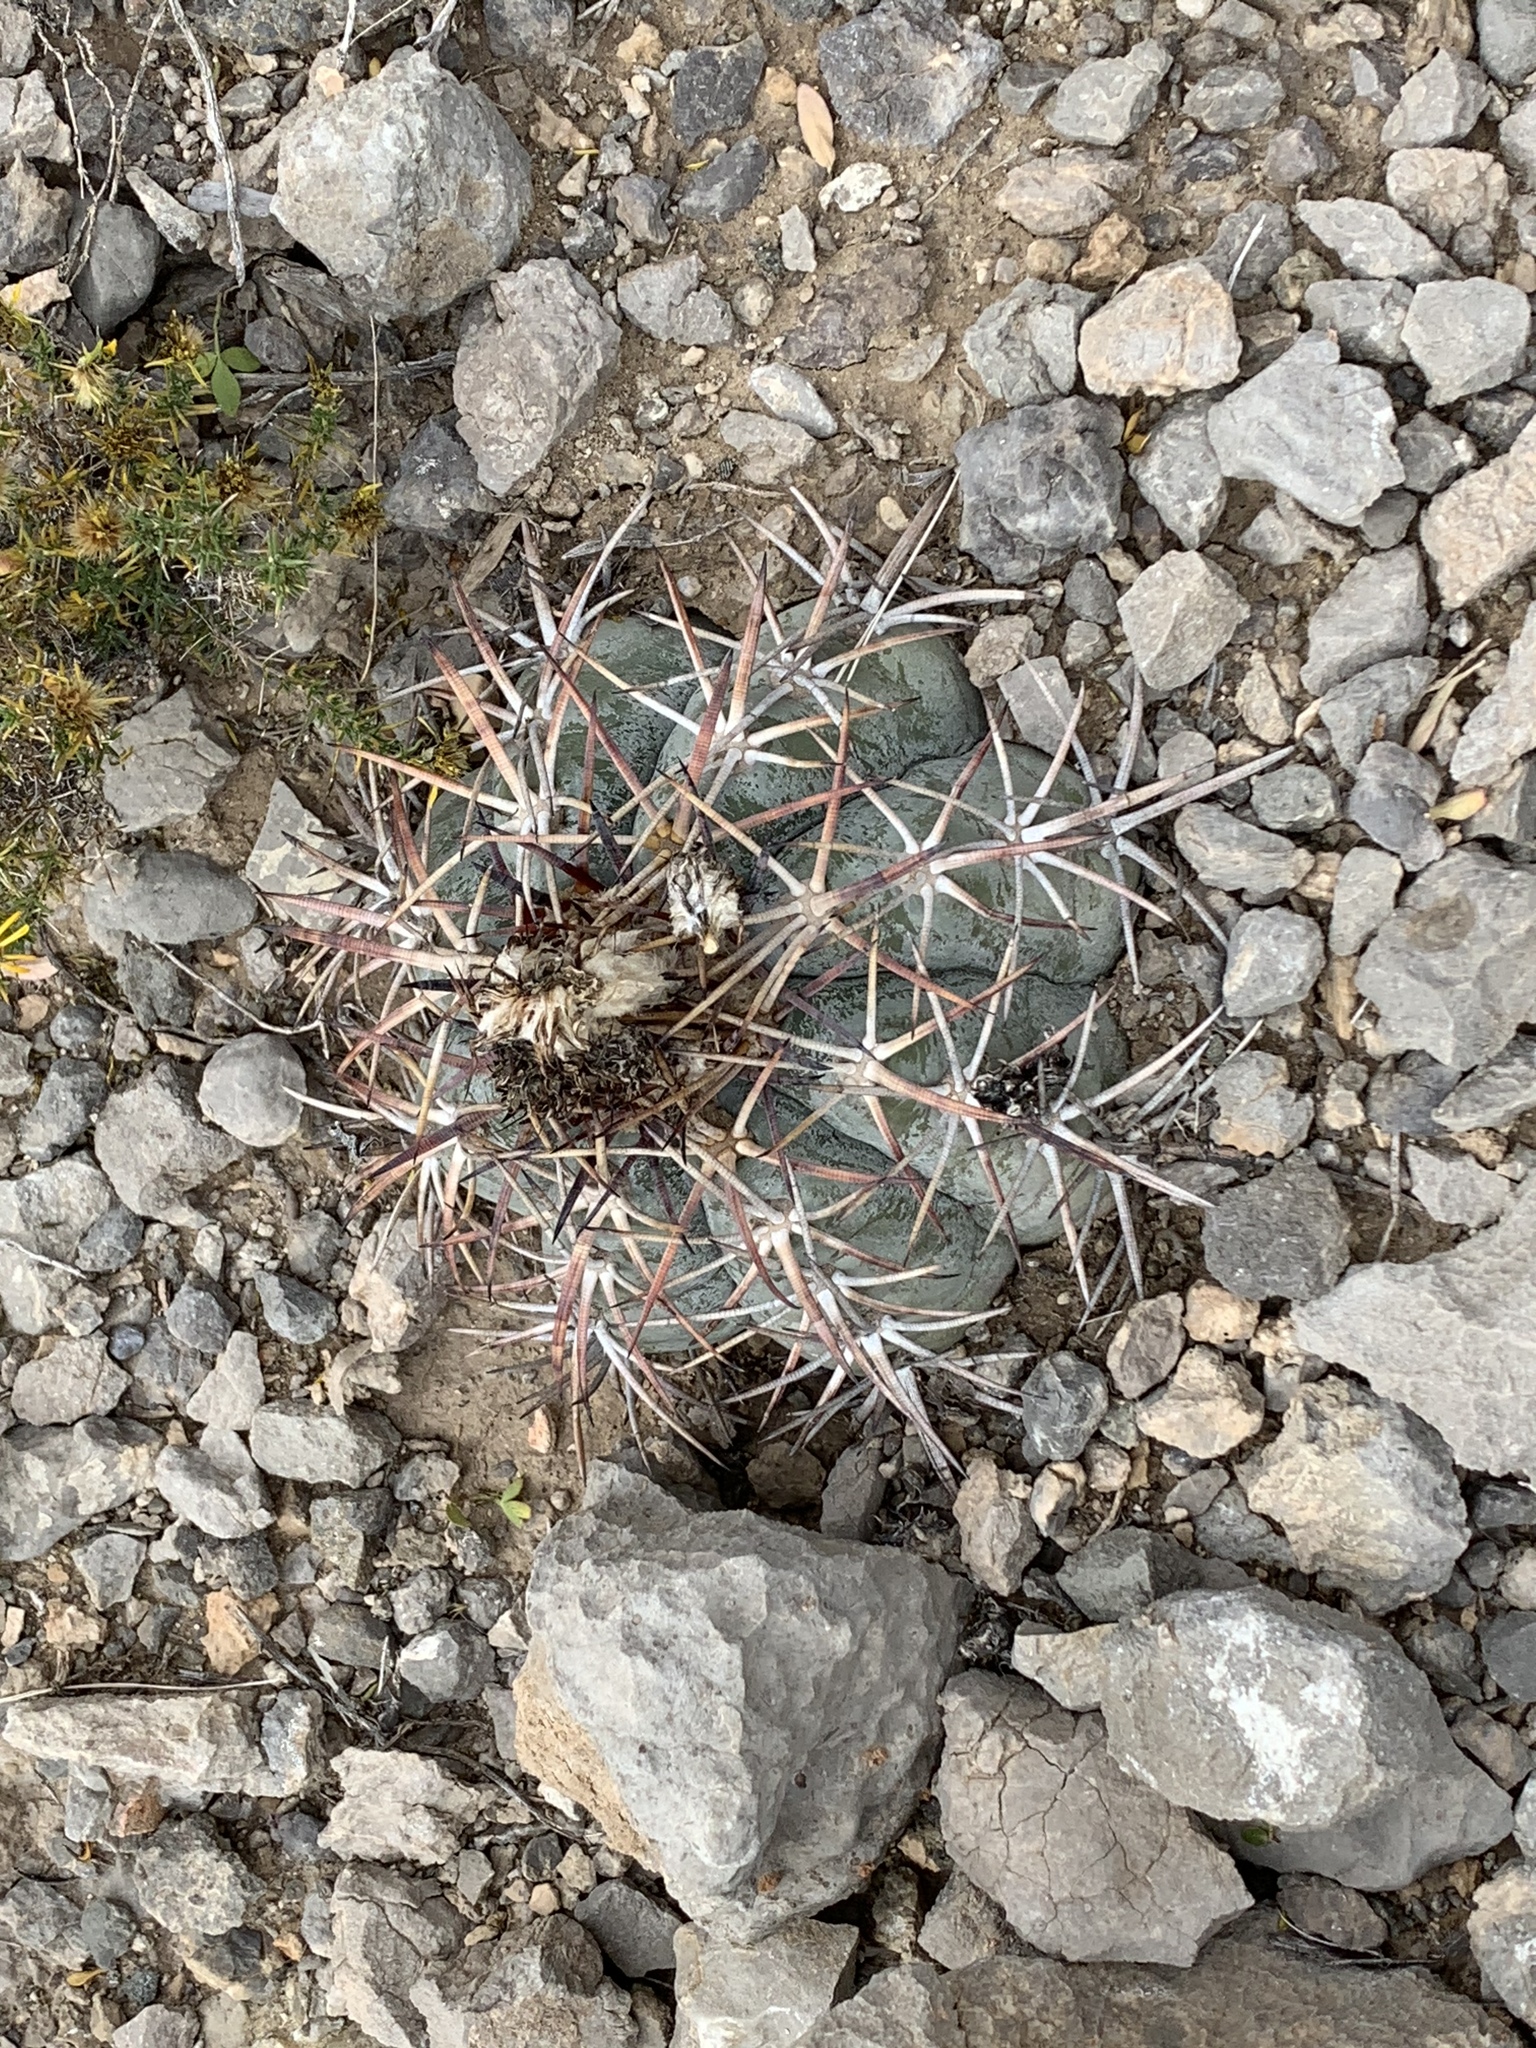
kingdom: Plantae
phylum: Tracheophyta
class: Magnoliopsida
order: Caryophyllales
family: Cactaceae
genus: Echinocactus
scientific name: Echinocactus horizonthalonius
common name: Devilshead
